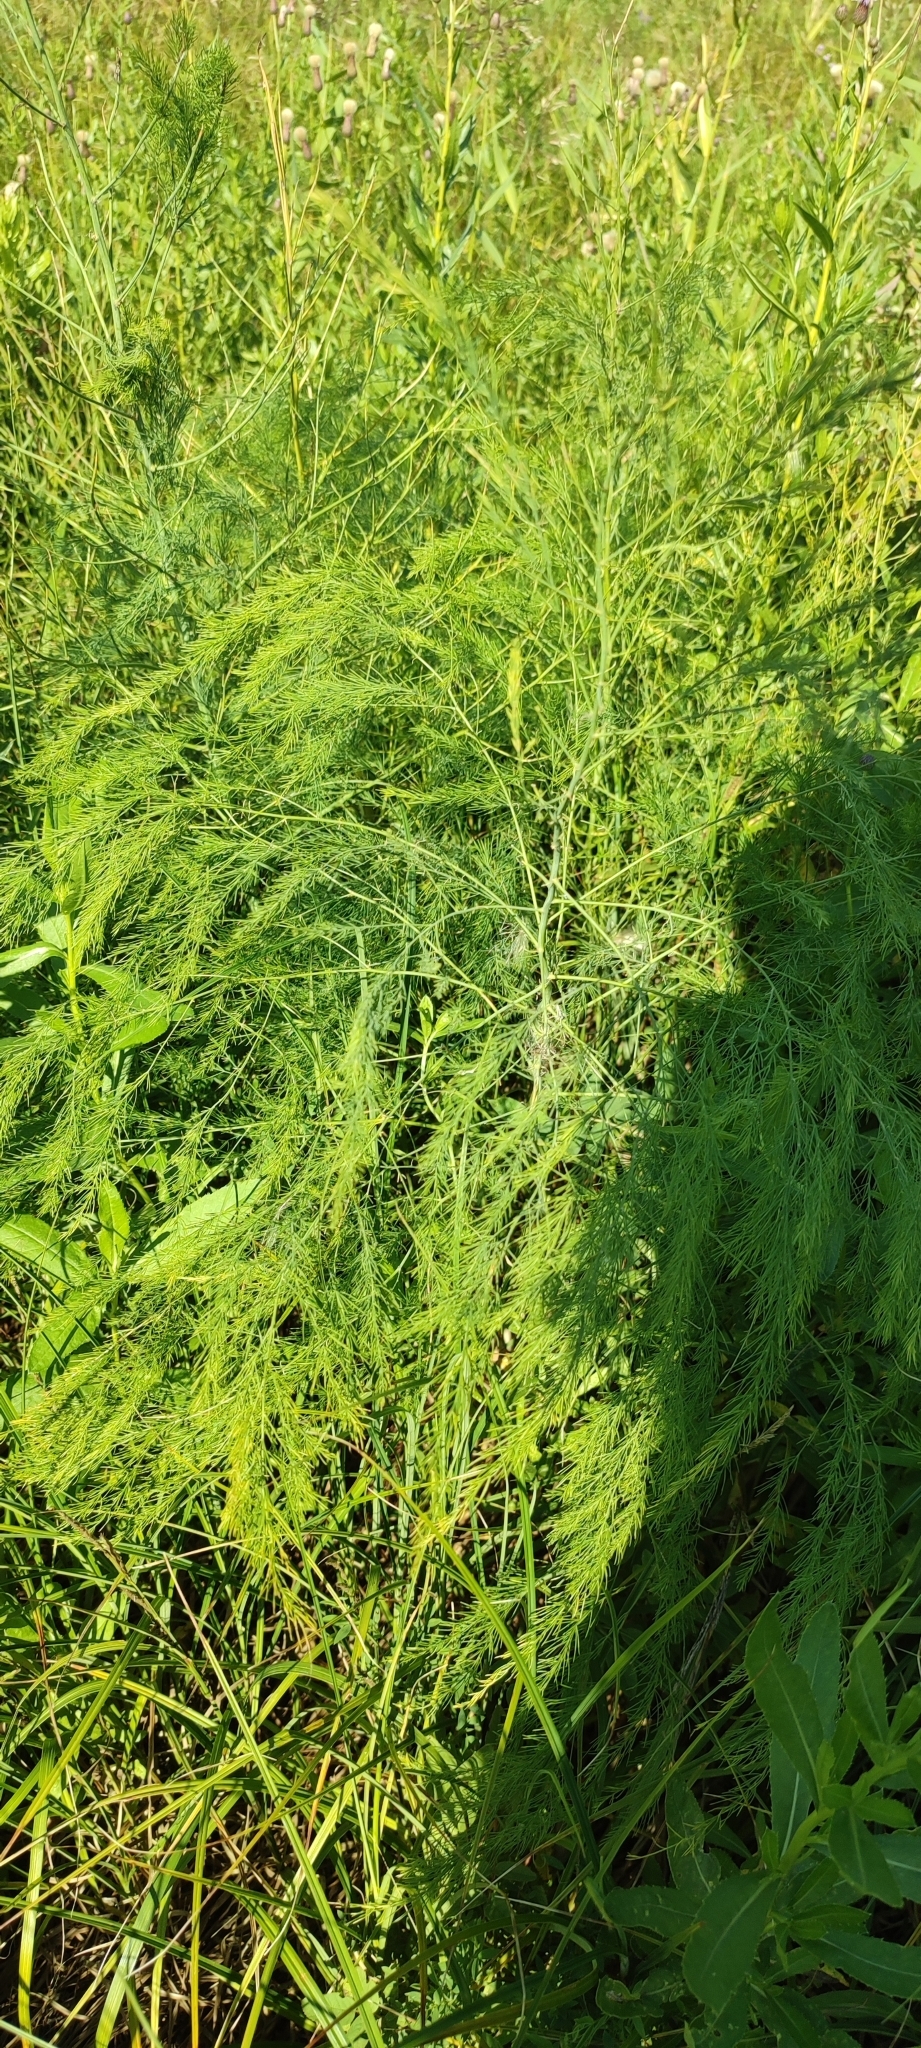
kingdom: Plantae
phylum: Tracheophyta
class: Liliopsida
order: Asparagales
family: Asparagaceae
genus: Asparagus
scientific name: Asparagus officinalis
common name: Garden asparagus
